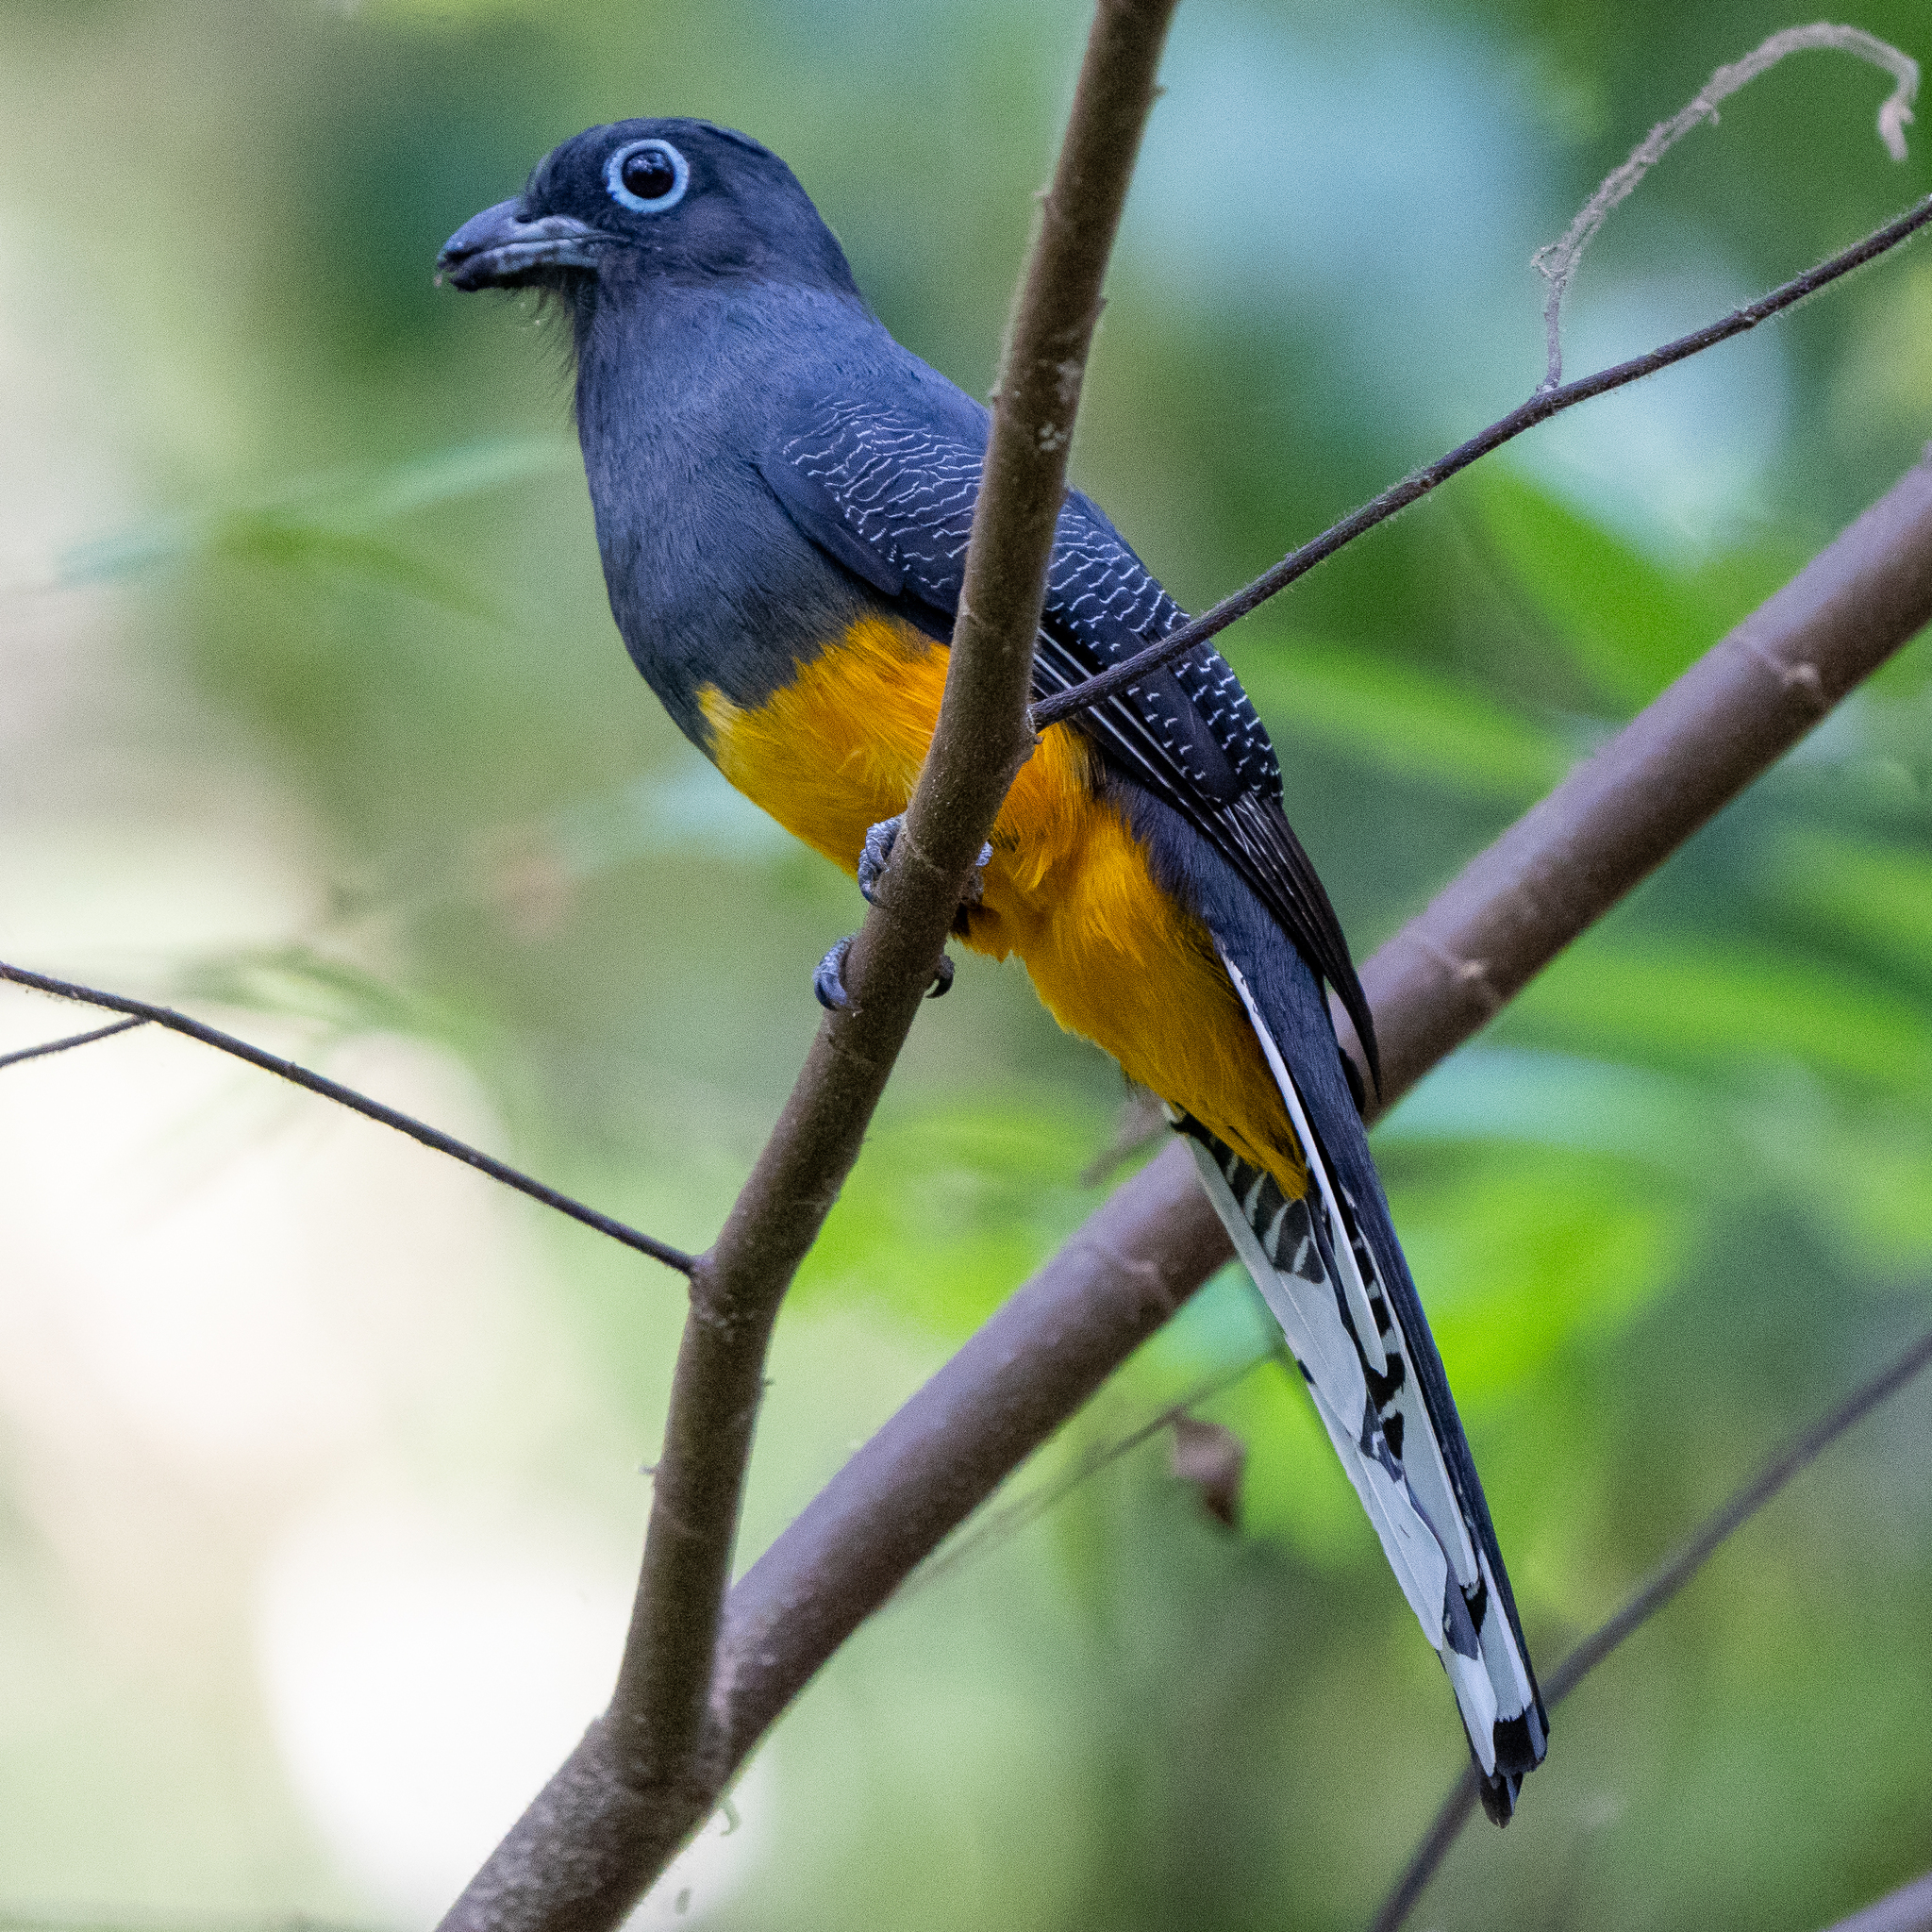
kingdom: Animalia
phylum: Chordata
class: Aves
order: Trogoniformes
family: Trogonidae
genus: Trogon
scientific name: Trogon chionurus
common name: White-tailed trogon
